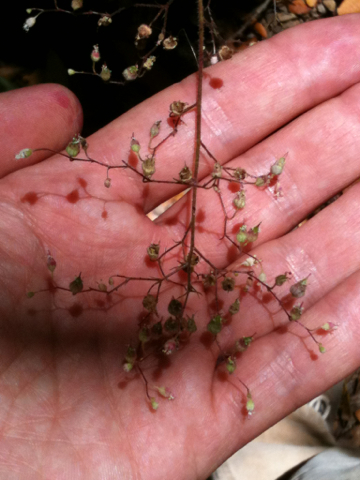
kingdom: Plantae
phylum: Tracheophyta
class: Magnoliopsida
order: Saxifragales
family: Saxifragaceae
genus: Heuchera
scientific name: Heuchera micrantha
